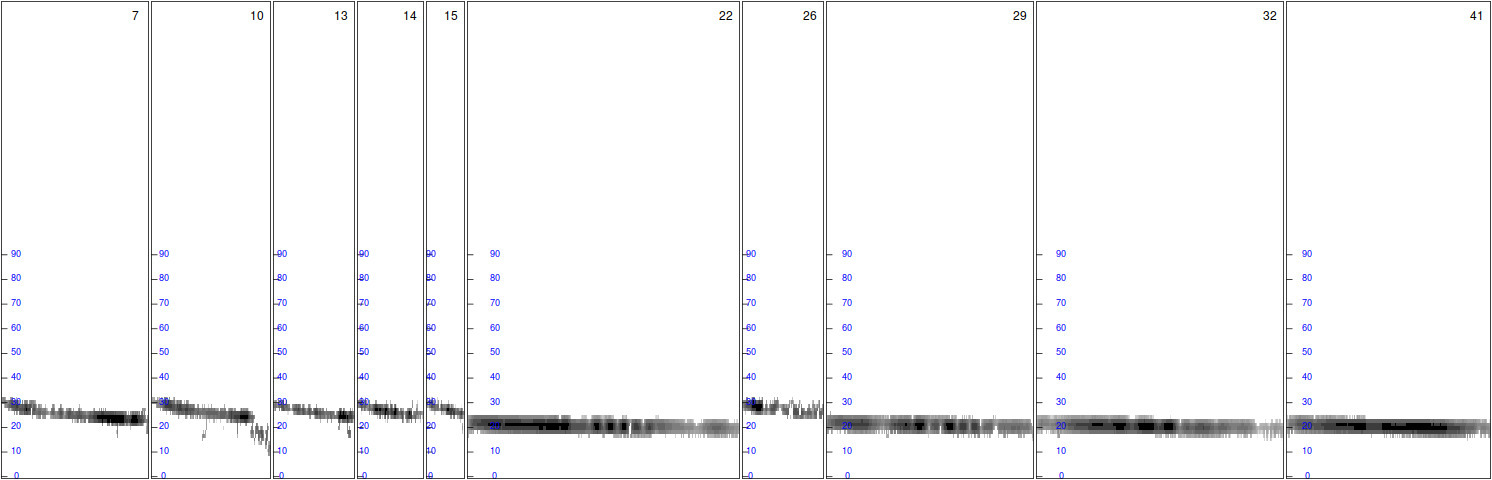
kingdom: Animalia
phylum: Chordata
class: Mammalia
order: Chiroptera
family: Vespertilionidae
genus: Nyctalus
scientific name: Nyctalus noctula
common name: Noctule
